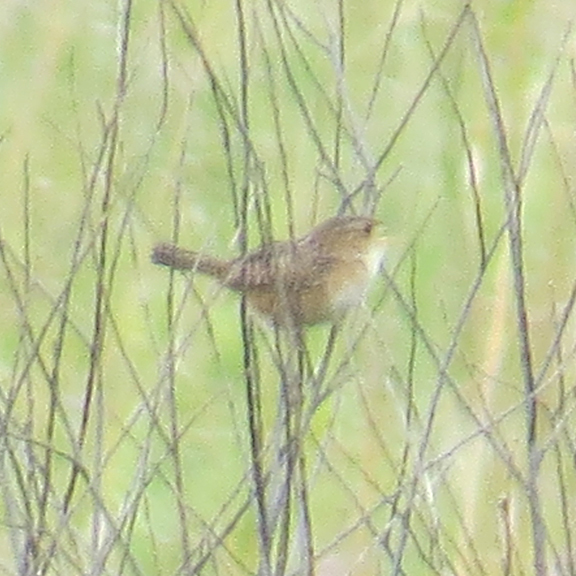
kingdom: Animalia
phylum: Chordata
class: Aves
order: Passeriformes
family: Troglodytidae
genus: Cistothorus
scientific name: Cistothorus platensis
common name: Sedge wren
